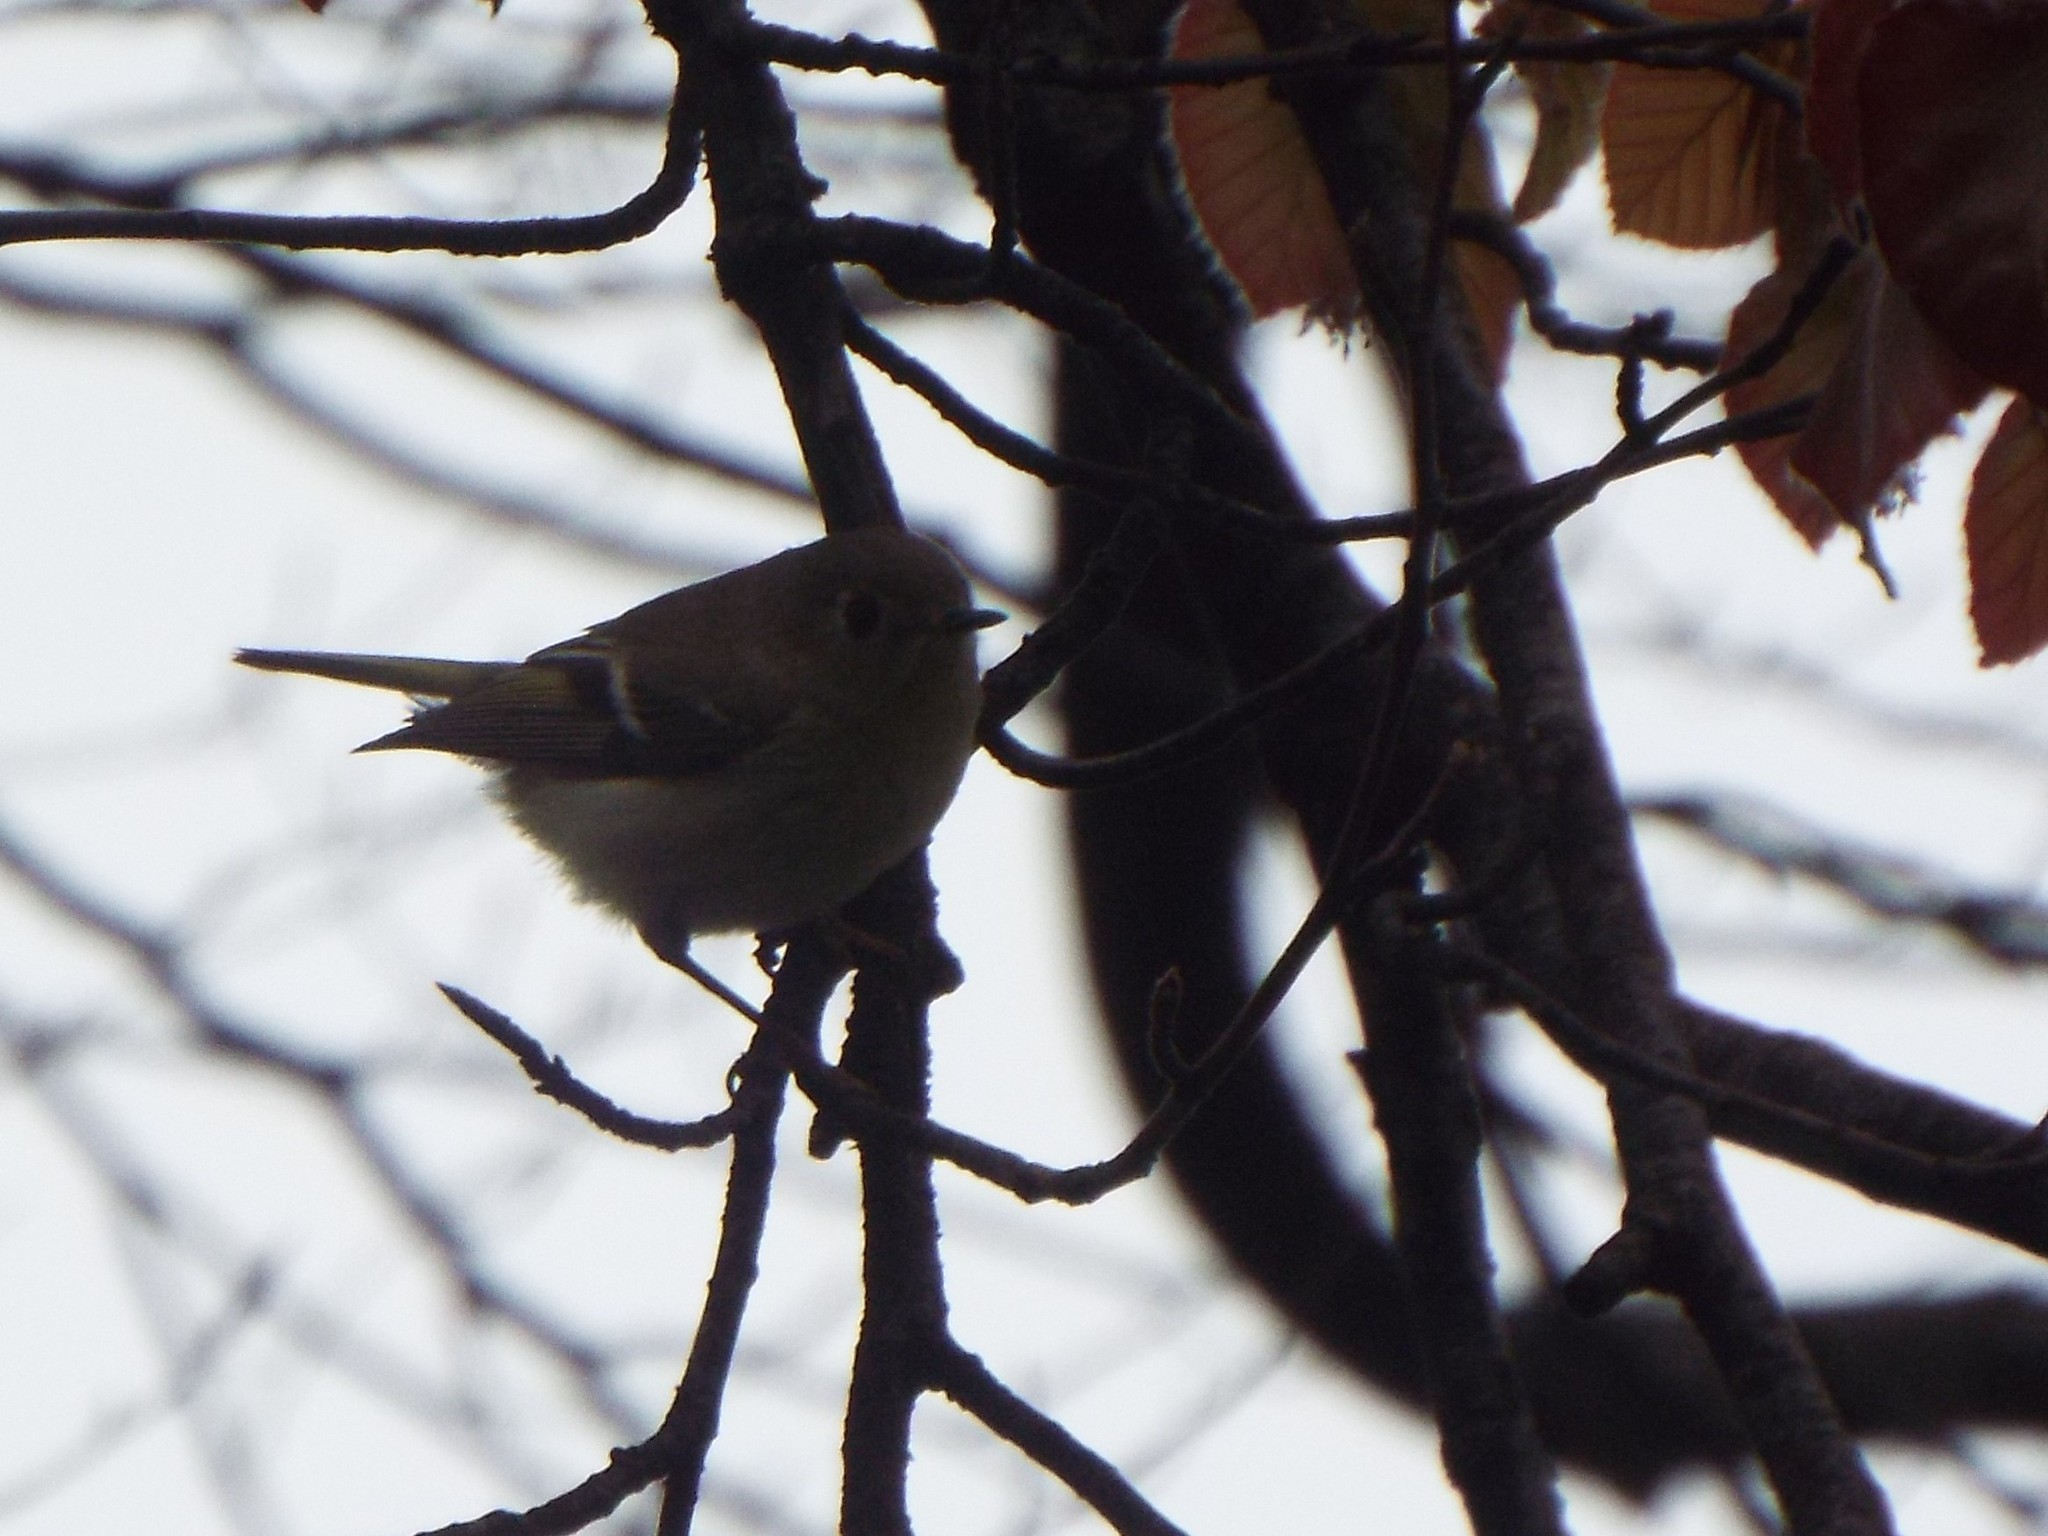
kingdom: Animalia
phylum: Chordata
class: Aves
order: Passeriformes
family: Regulidae
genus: Regulus
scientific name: Regulus calendula
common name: Ruby-crowned kinglet
